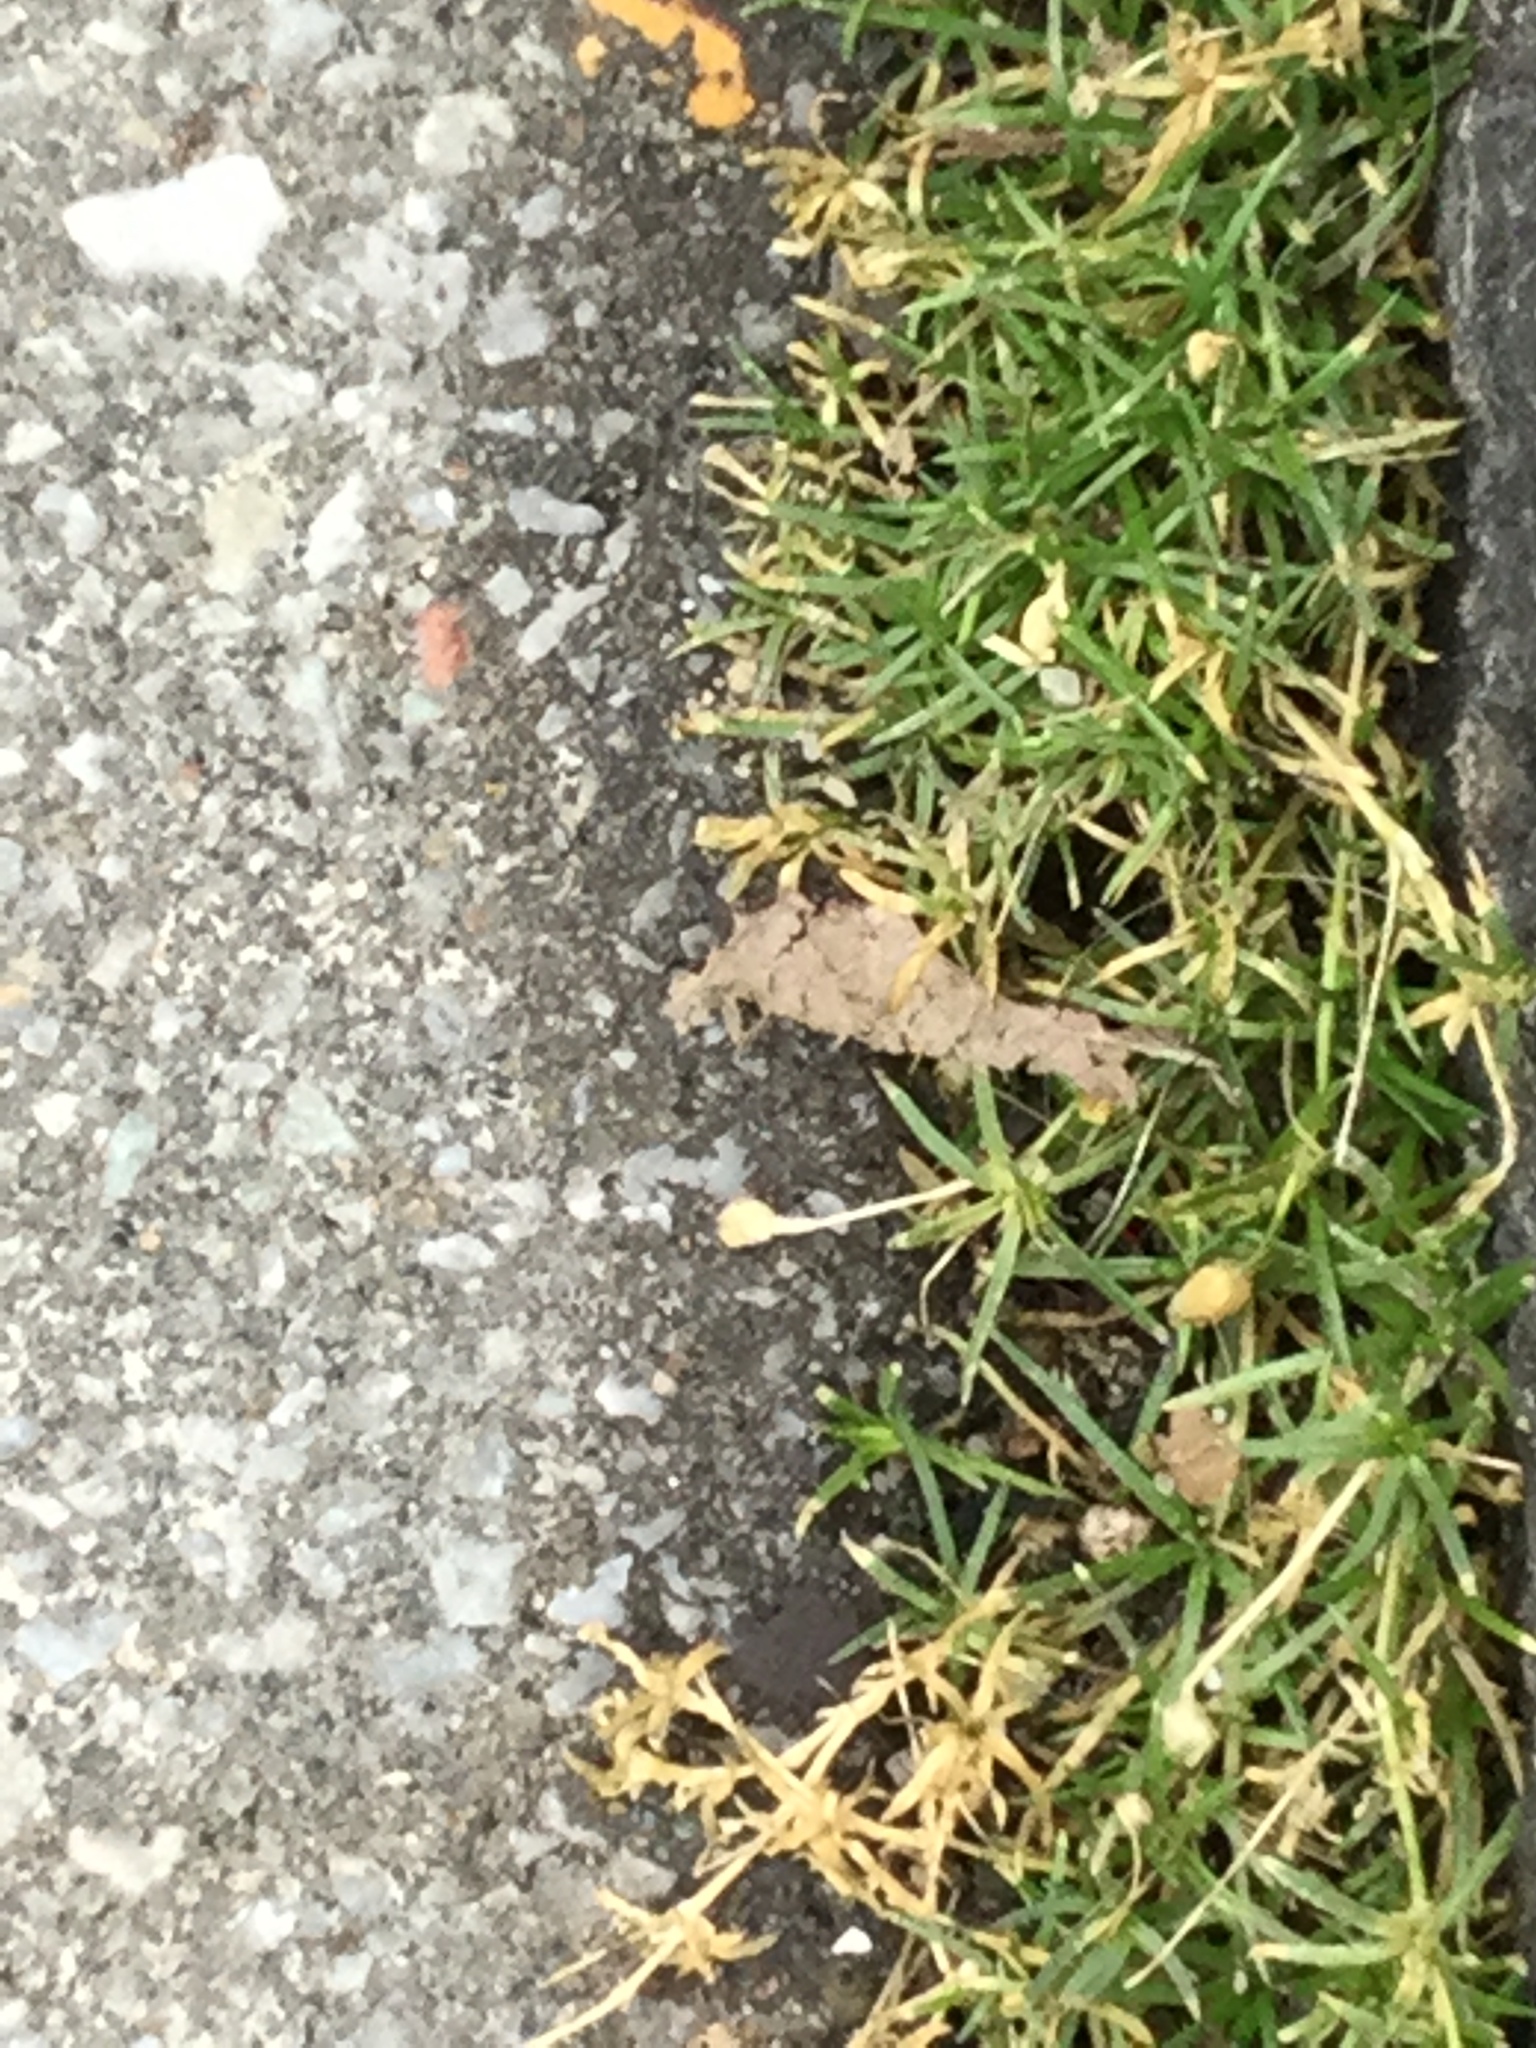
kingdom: Plantae
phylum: Tracheophyta
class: Magnoliopsida
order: Caryophyllales
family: Caryophyllaceae
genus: Sagina
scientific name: Sagina procumbens
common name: Procumbent pearlwort
